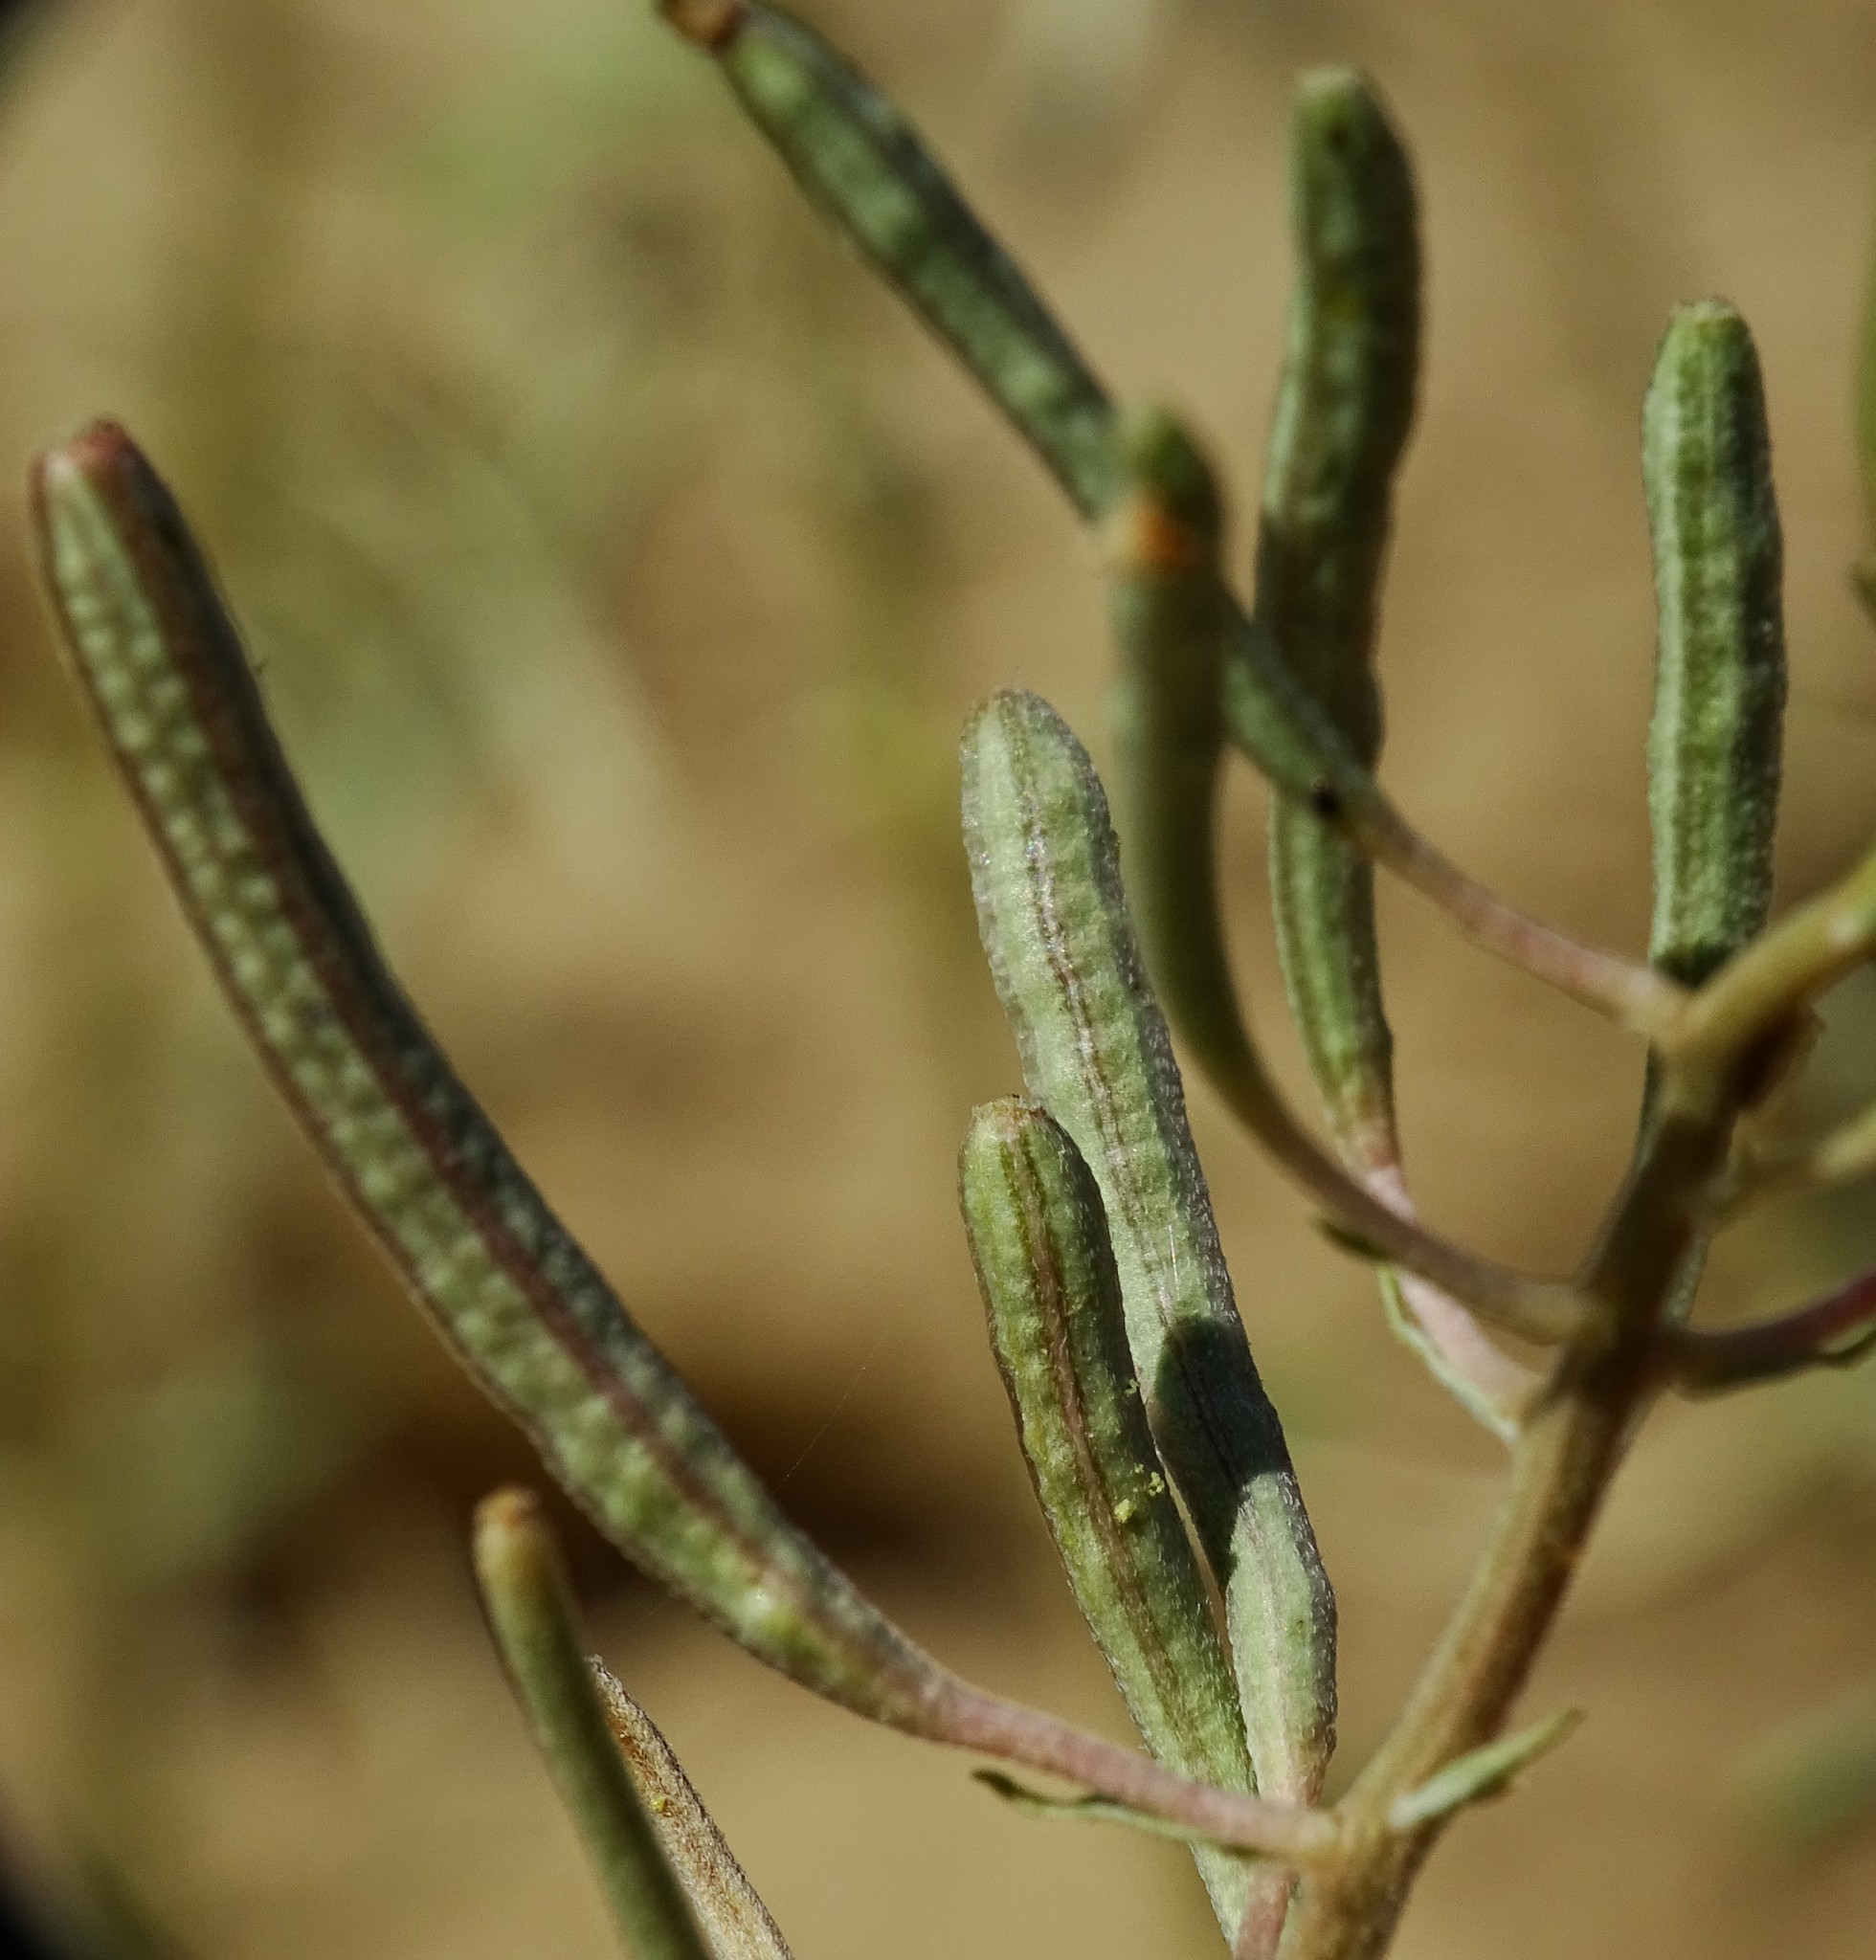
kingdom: Plantae
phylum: Tracheophyta
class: Magnoliopsida
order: Myrtales
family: Onagraceae
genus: Chylismia
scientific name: Chylismia claviformis
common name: Browneyes
